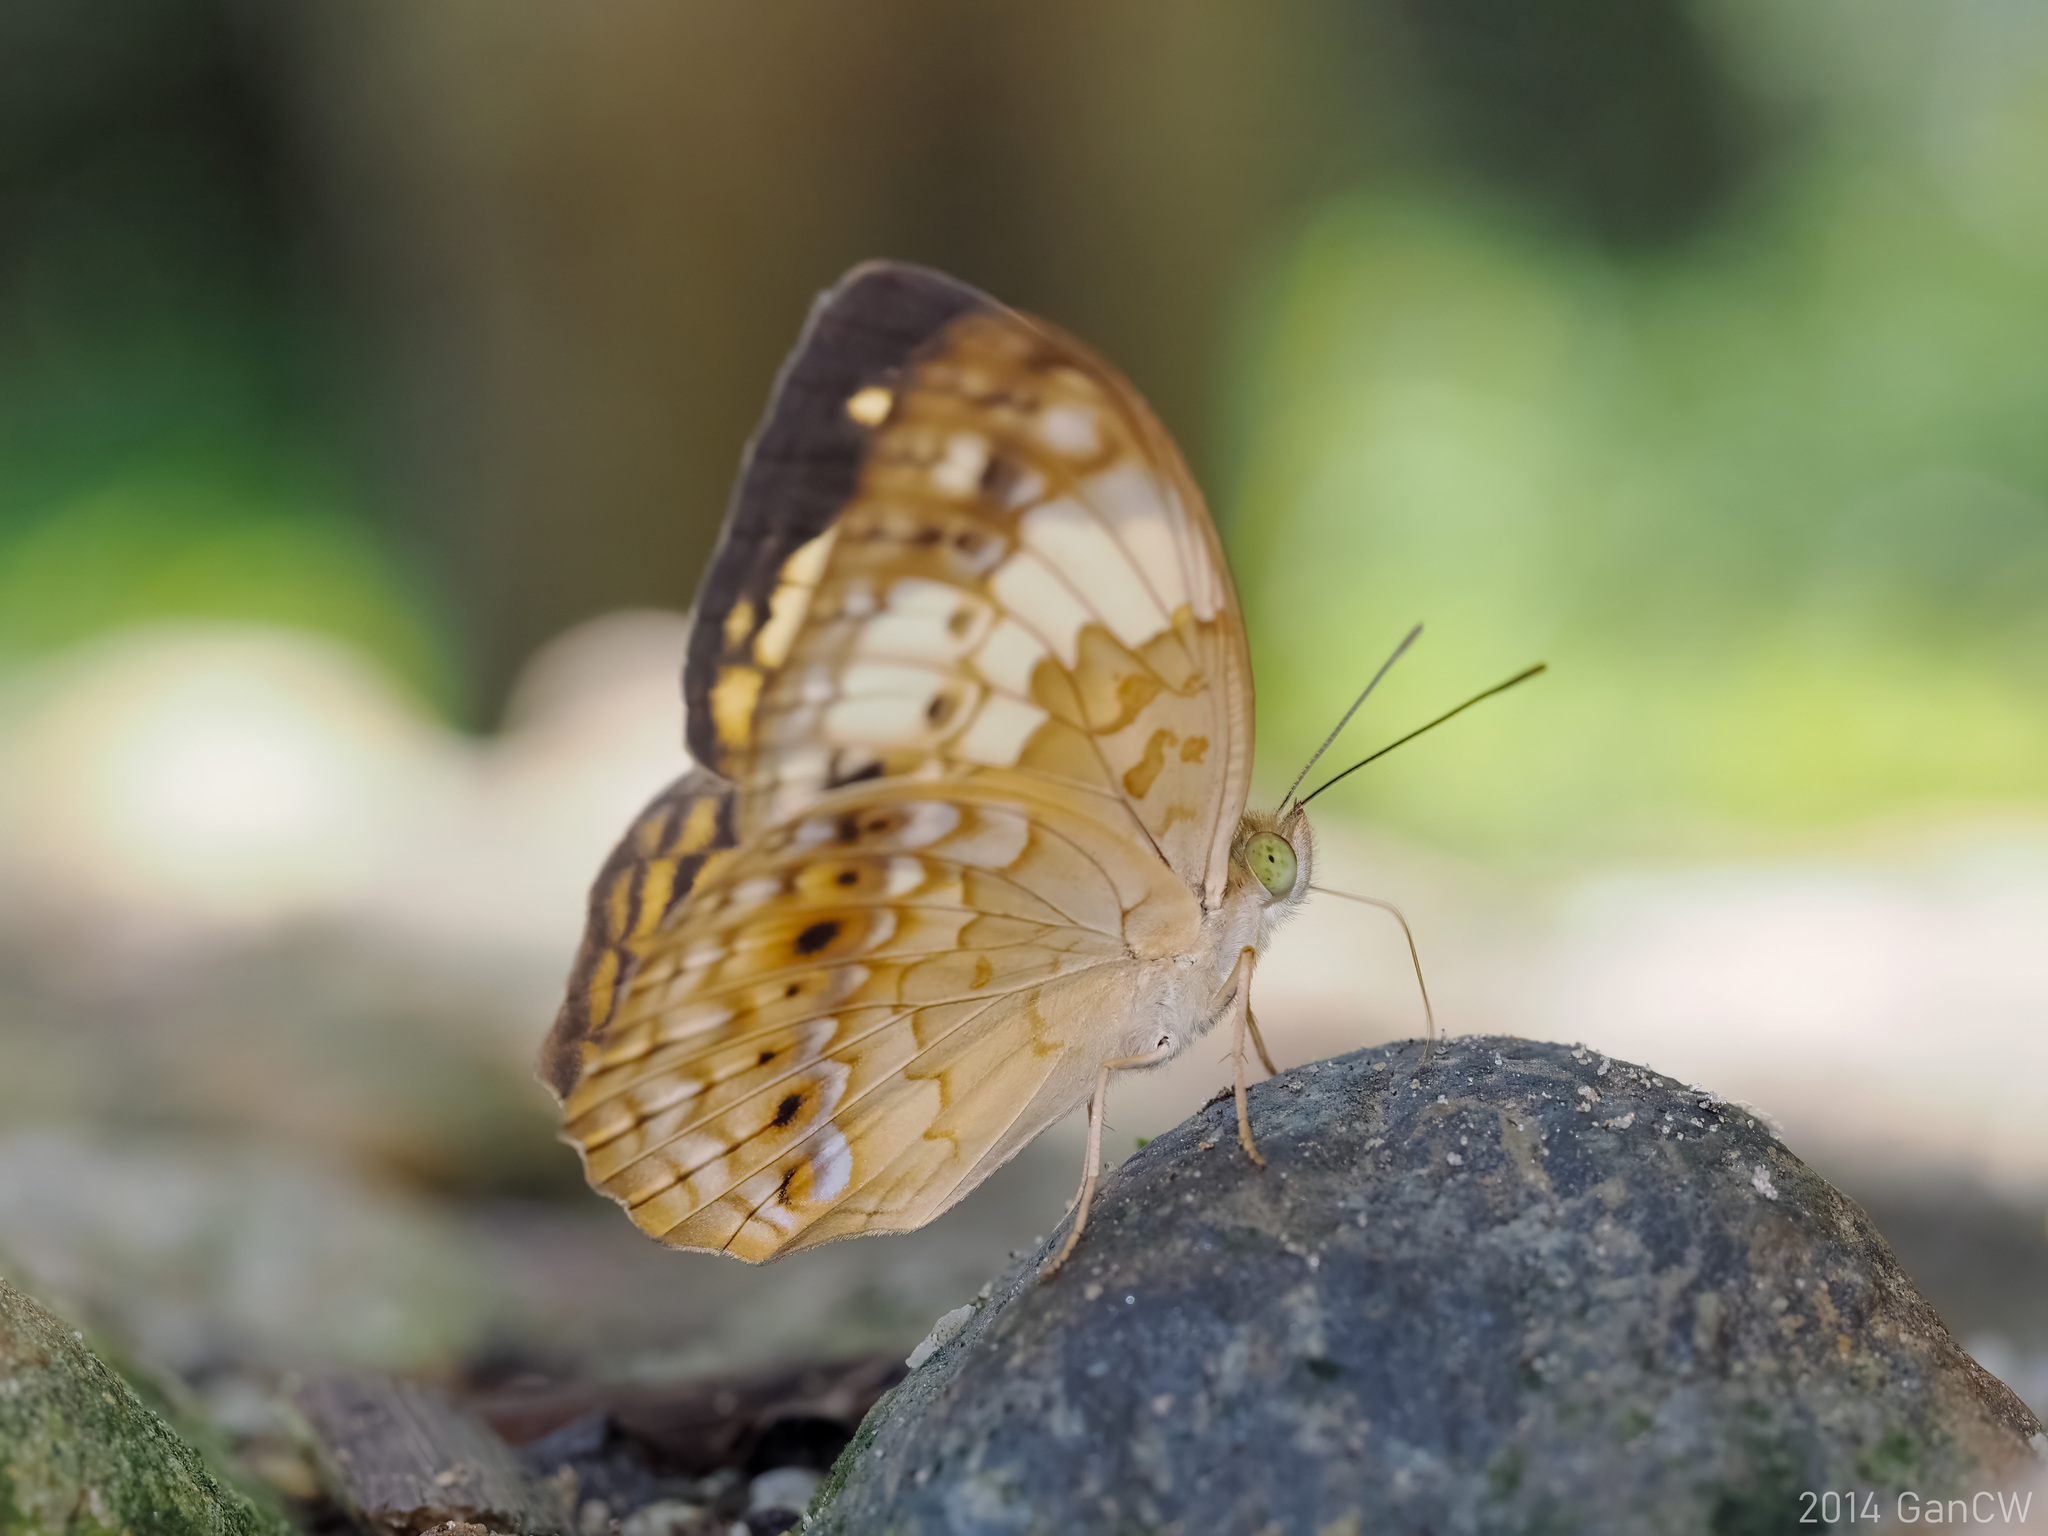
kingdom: Animalia
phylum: Arthropoda
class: Insecta
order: Lepidoptera
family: Nymphalidae
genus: Cupha
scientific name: Cupha erymanthis
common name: Rustic
